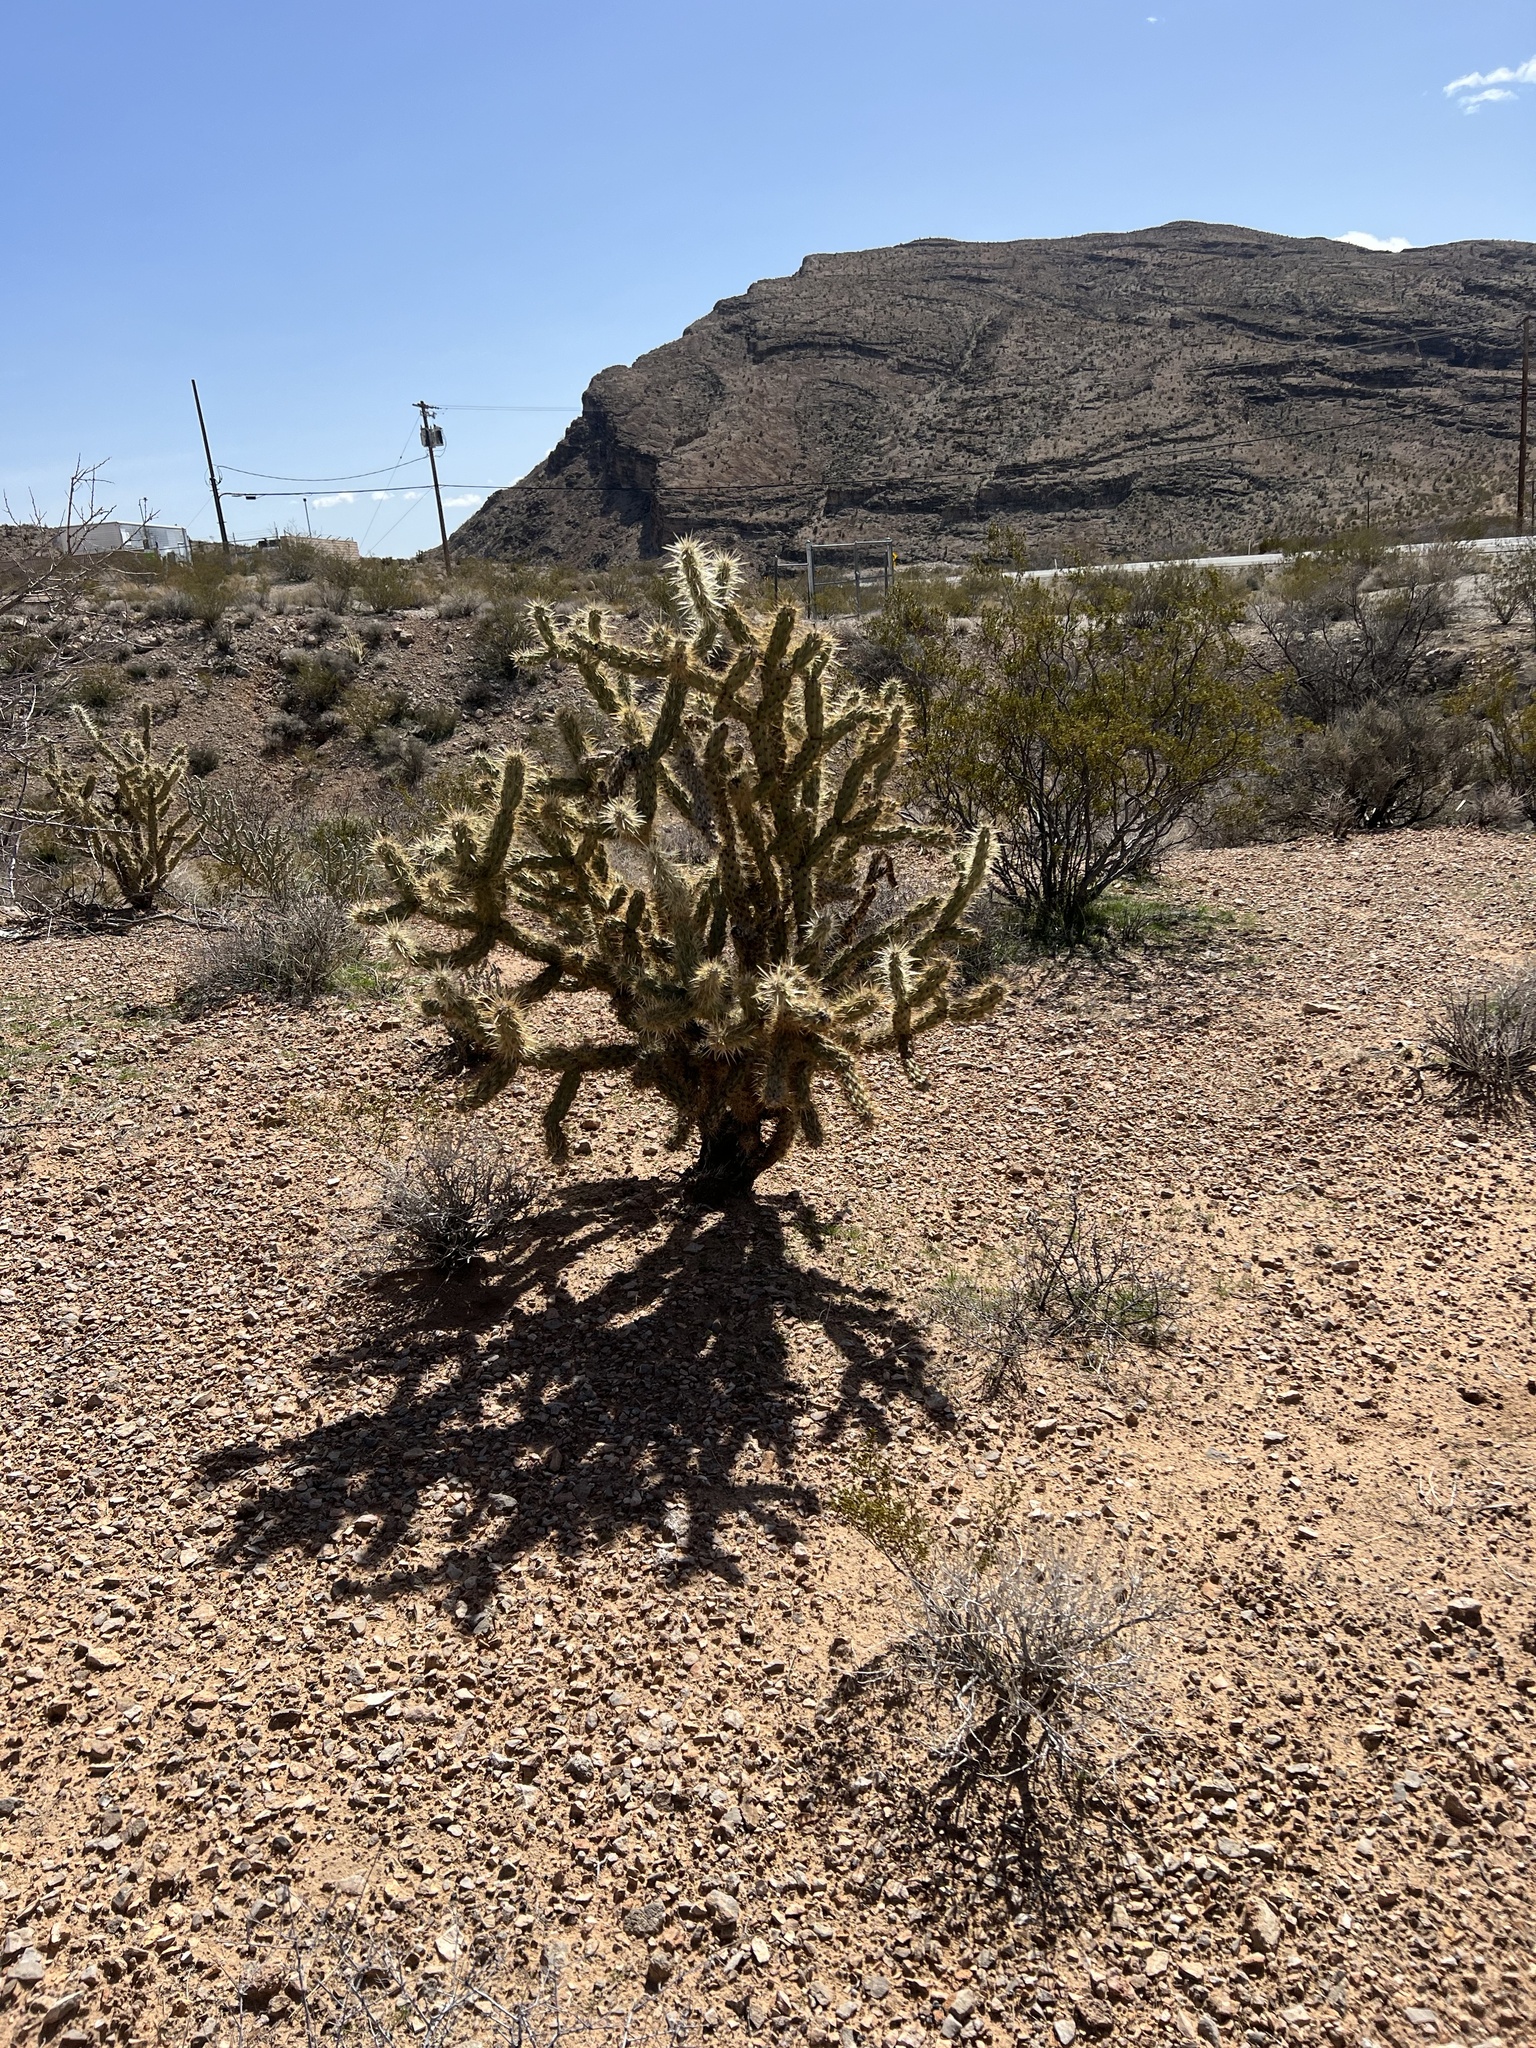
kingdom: Plantae
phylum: Tracheophyta
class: Magnoliopsida
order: Caryophyllales
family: Cactaceae
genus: Cylindropuntia
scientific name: Cylindropuntia acanthocarpa
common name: Buckhorn cholla
